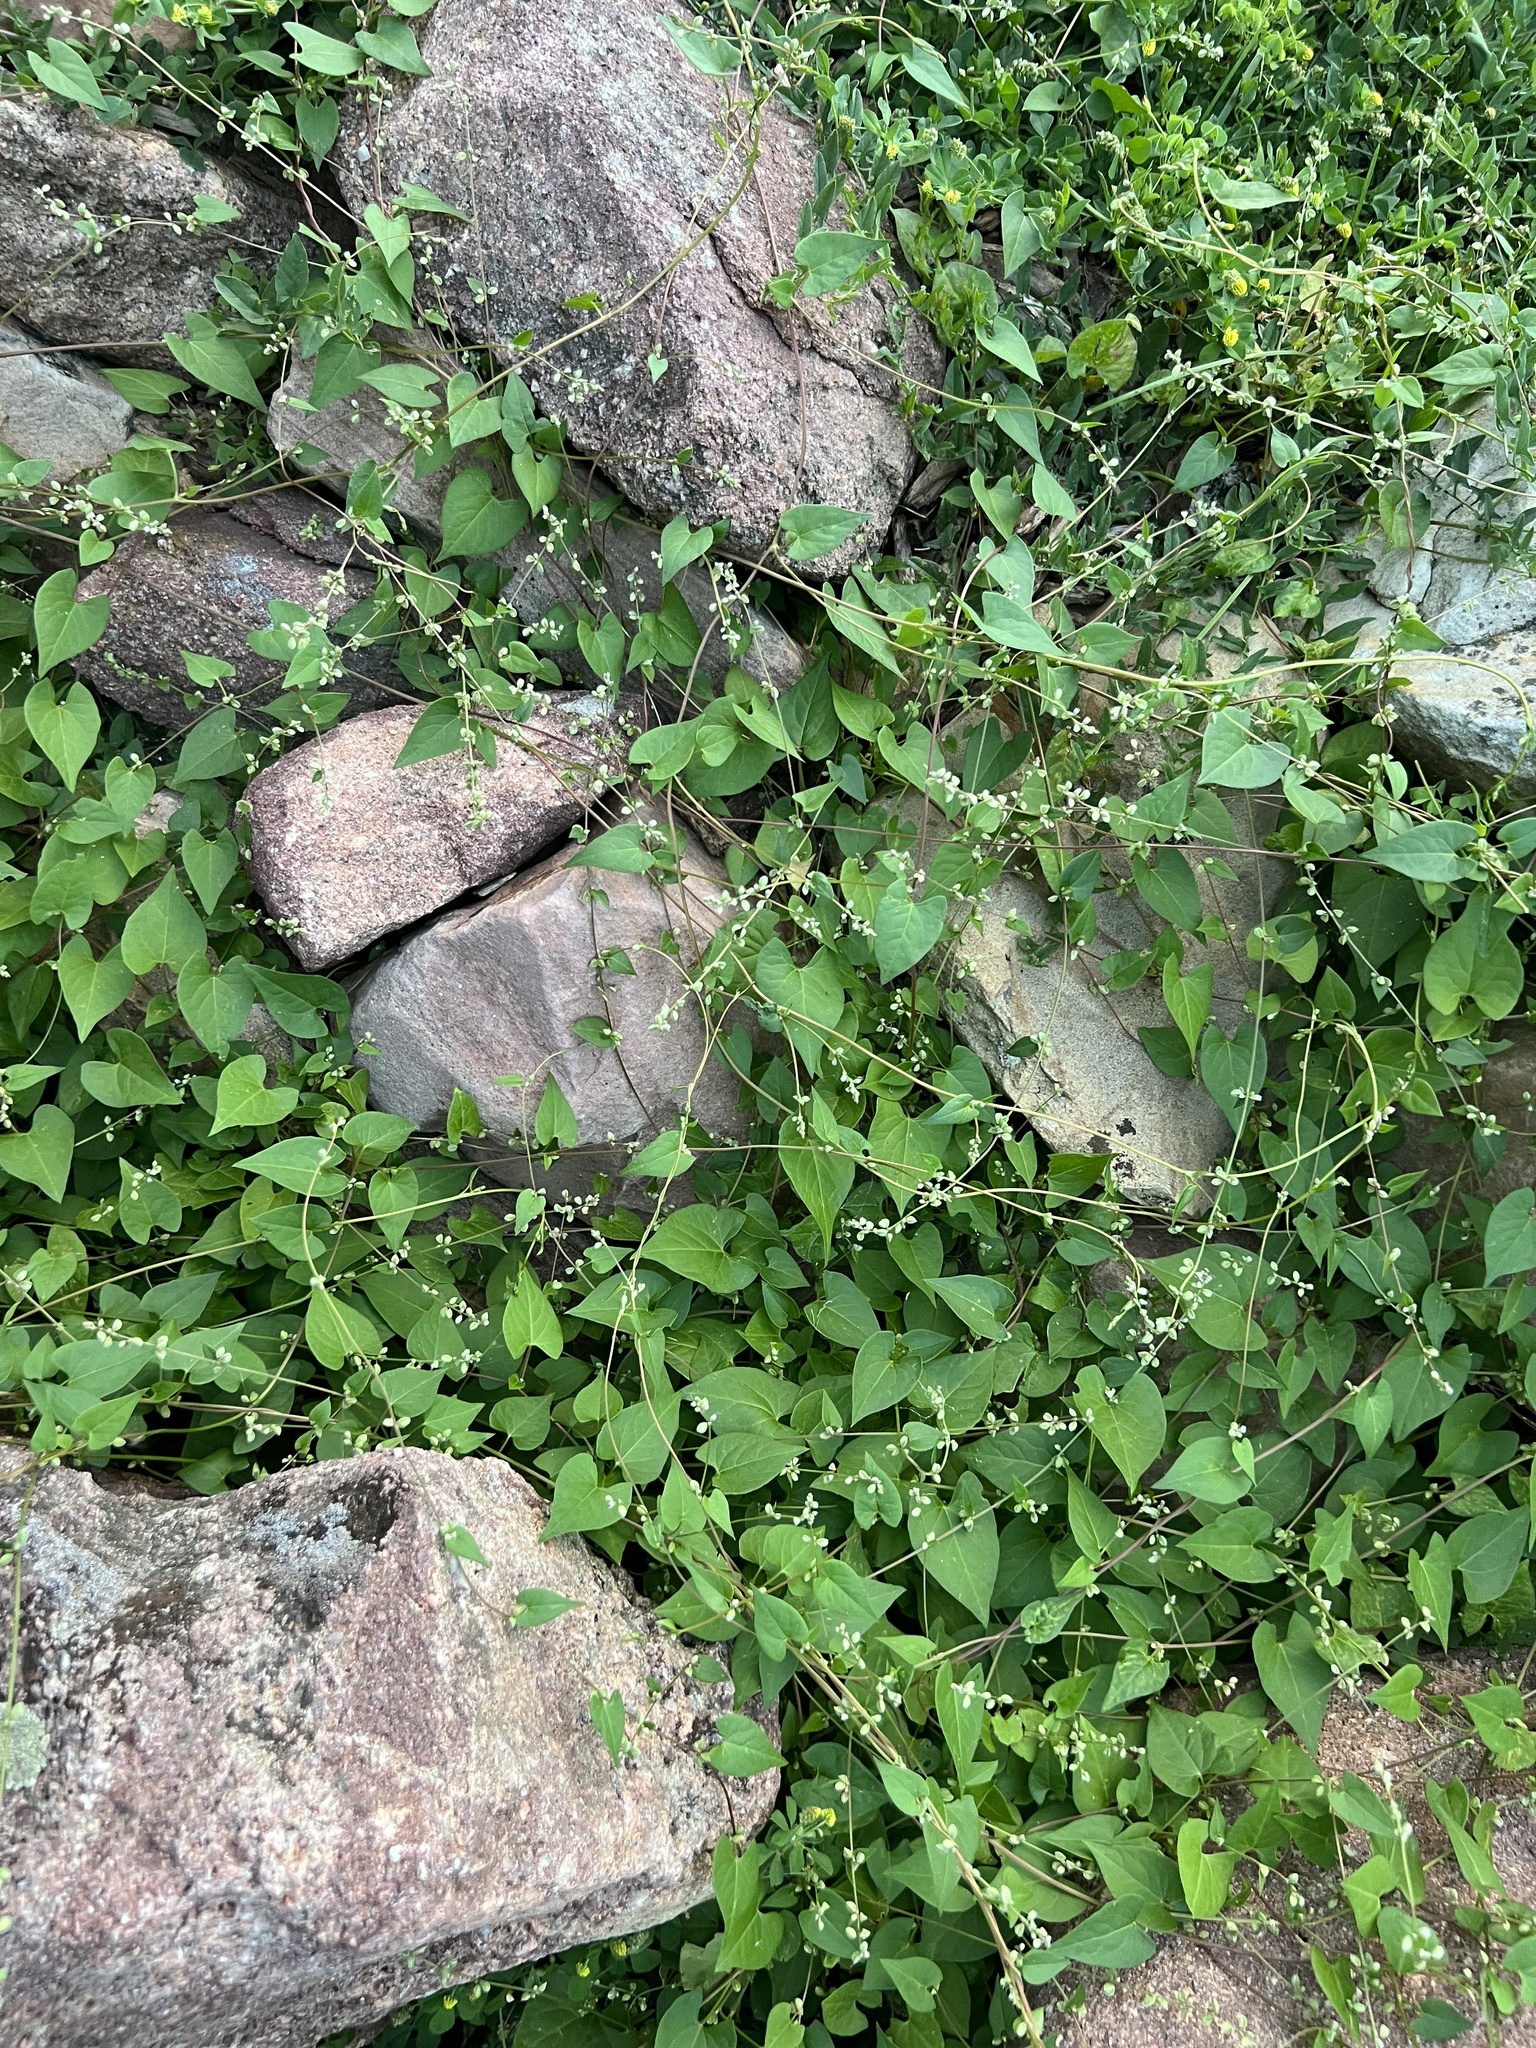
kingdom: Plantae
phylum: Tracheophyta
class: Magnoliopsida
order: Caryophyllales
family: Polygonaceae
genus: Fallopia
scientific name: Fallopia convolvulus
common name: Black bindweed
